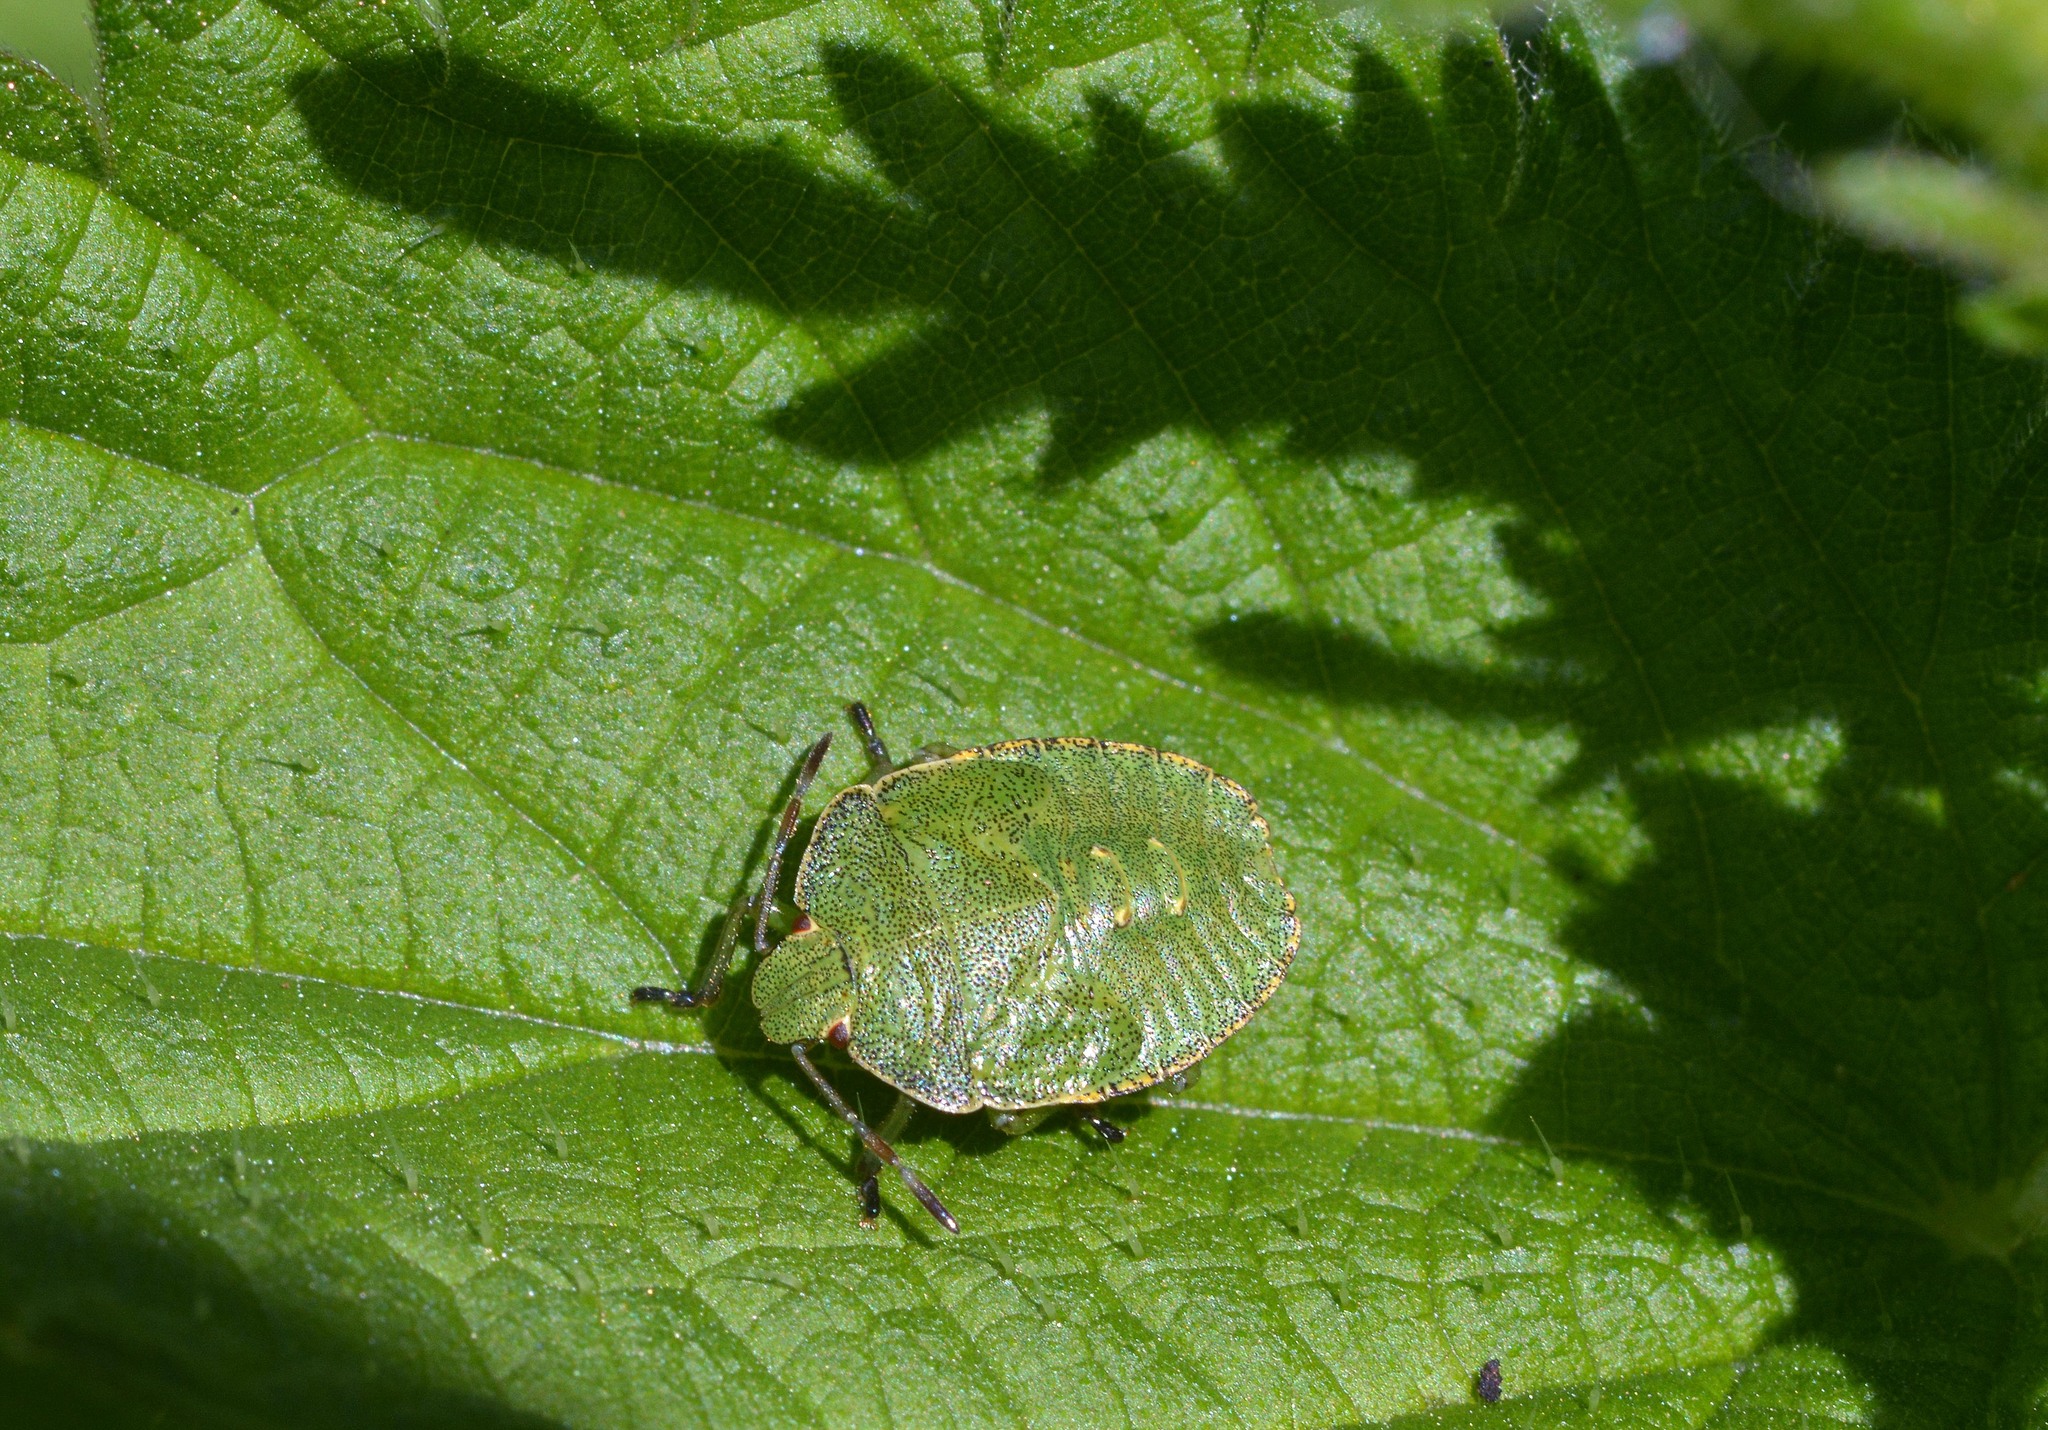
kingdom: Animalia
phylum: Arthropoda
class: Insecta
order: Hemiptera
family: Pentatomidae
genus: Palomena
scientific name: Palomena prasina
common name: Green shieldbug
